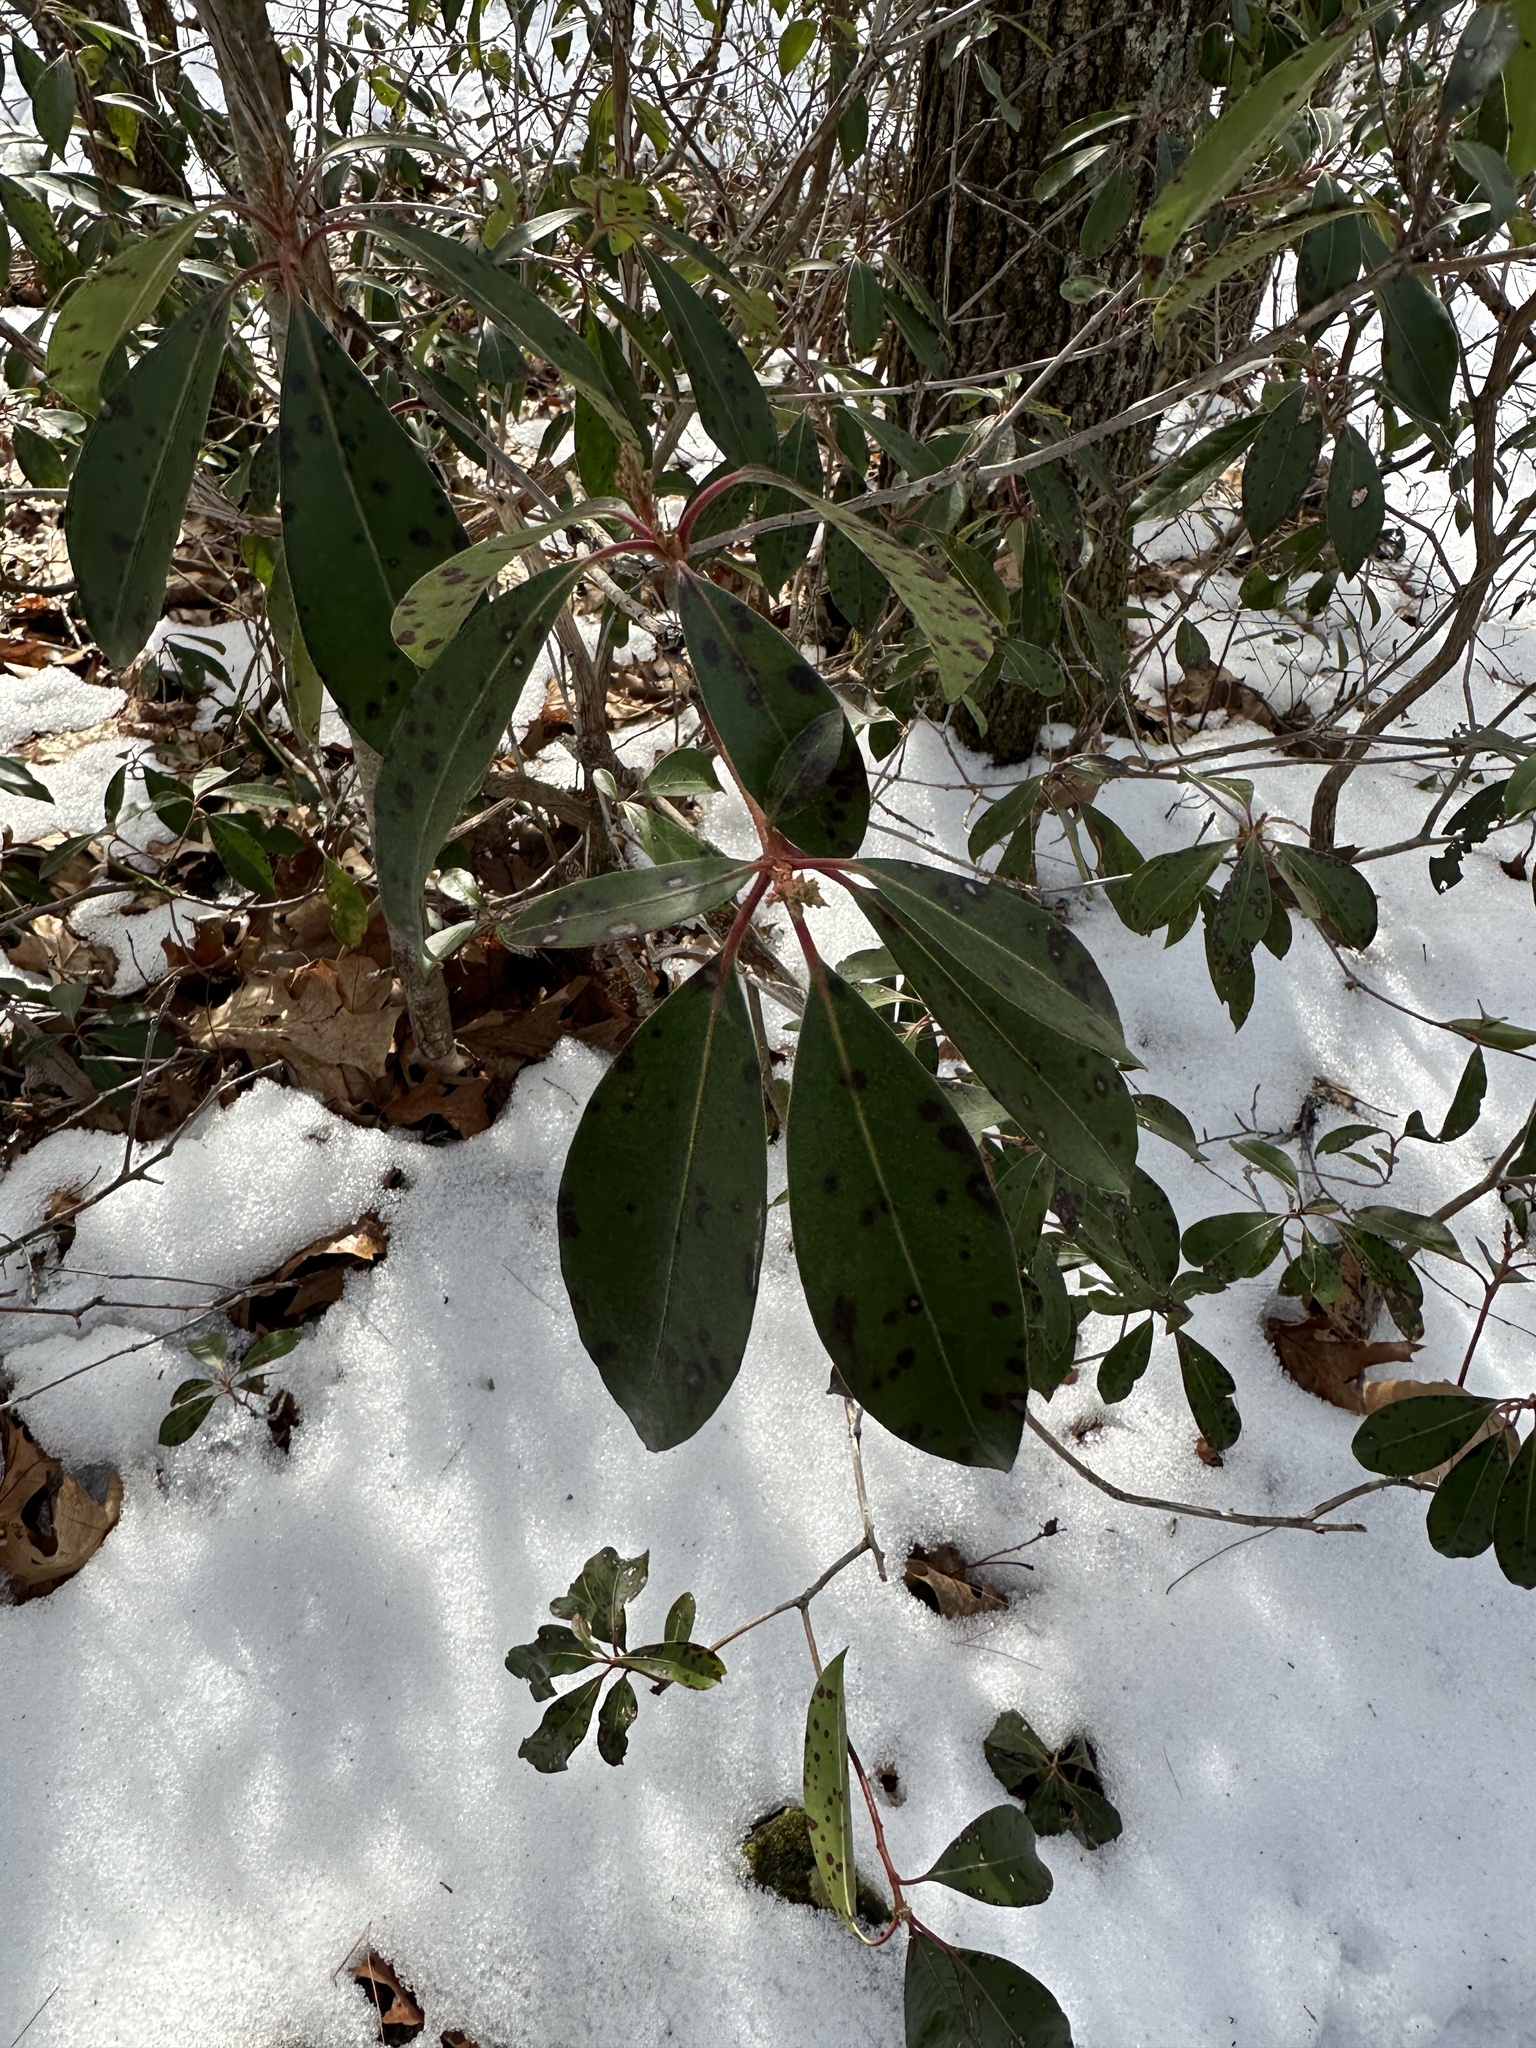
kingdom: Plantae
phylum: Tracheophyta
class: Magnoliopsida
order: Ericales
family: Ericaceae
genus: Kalmia
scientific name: Kalmia latifolia
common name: Mountain-laurel
